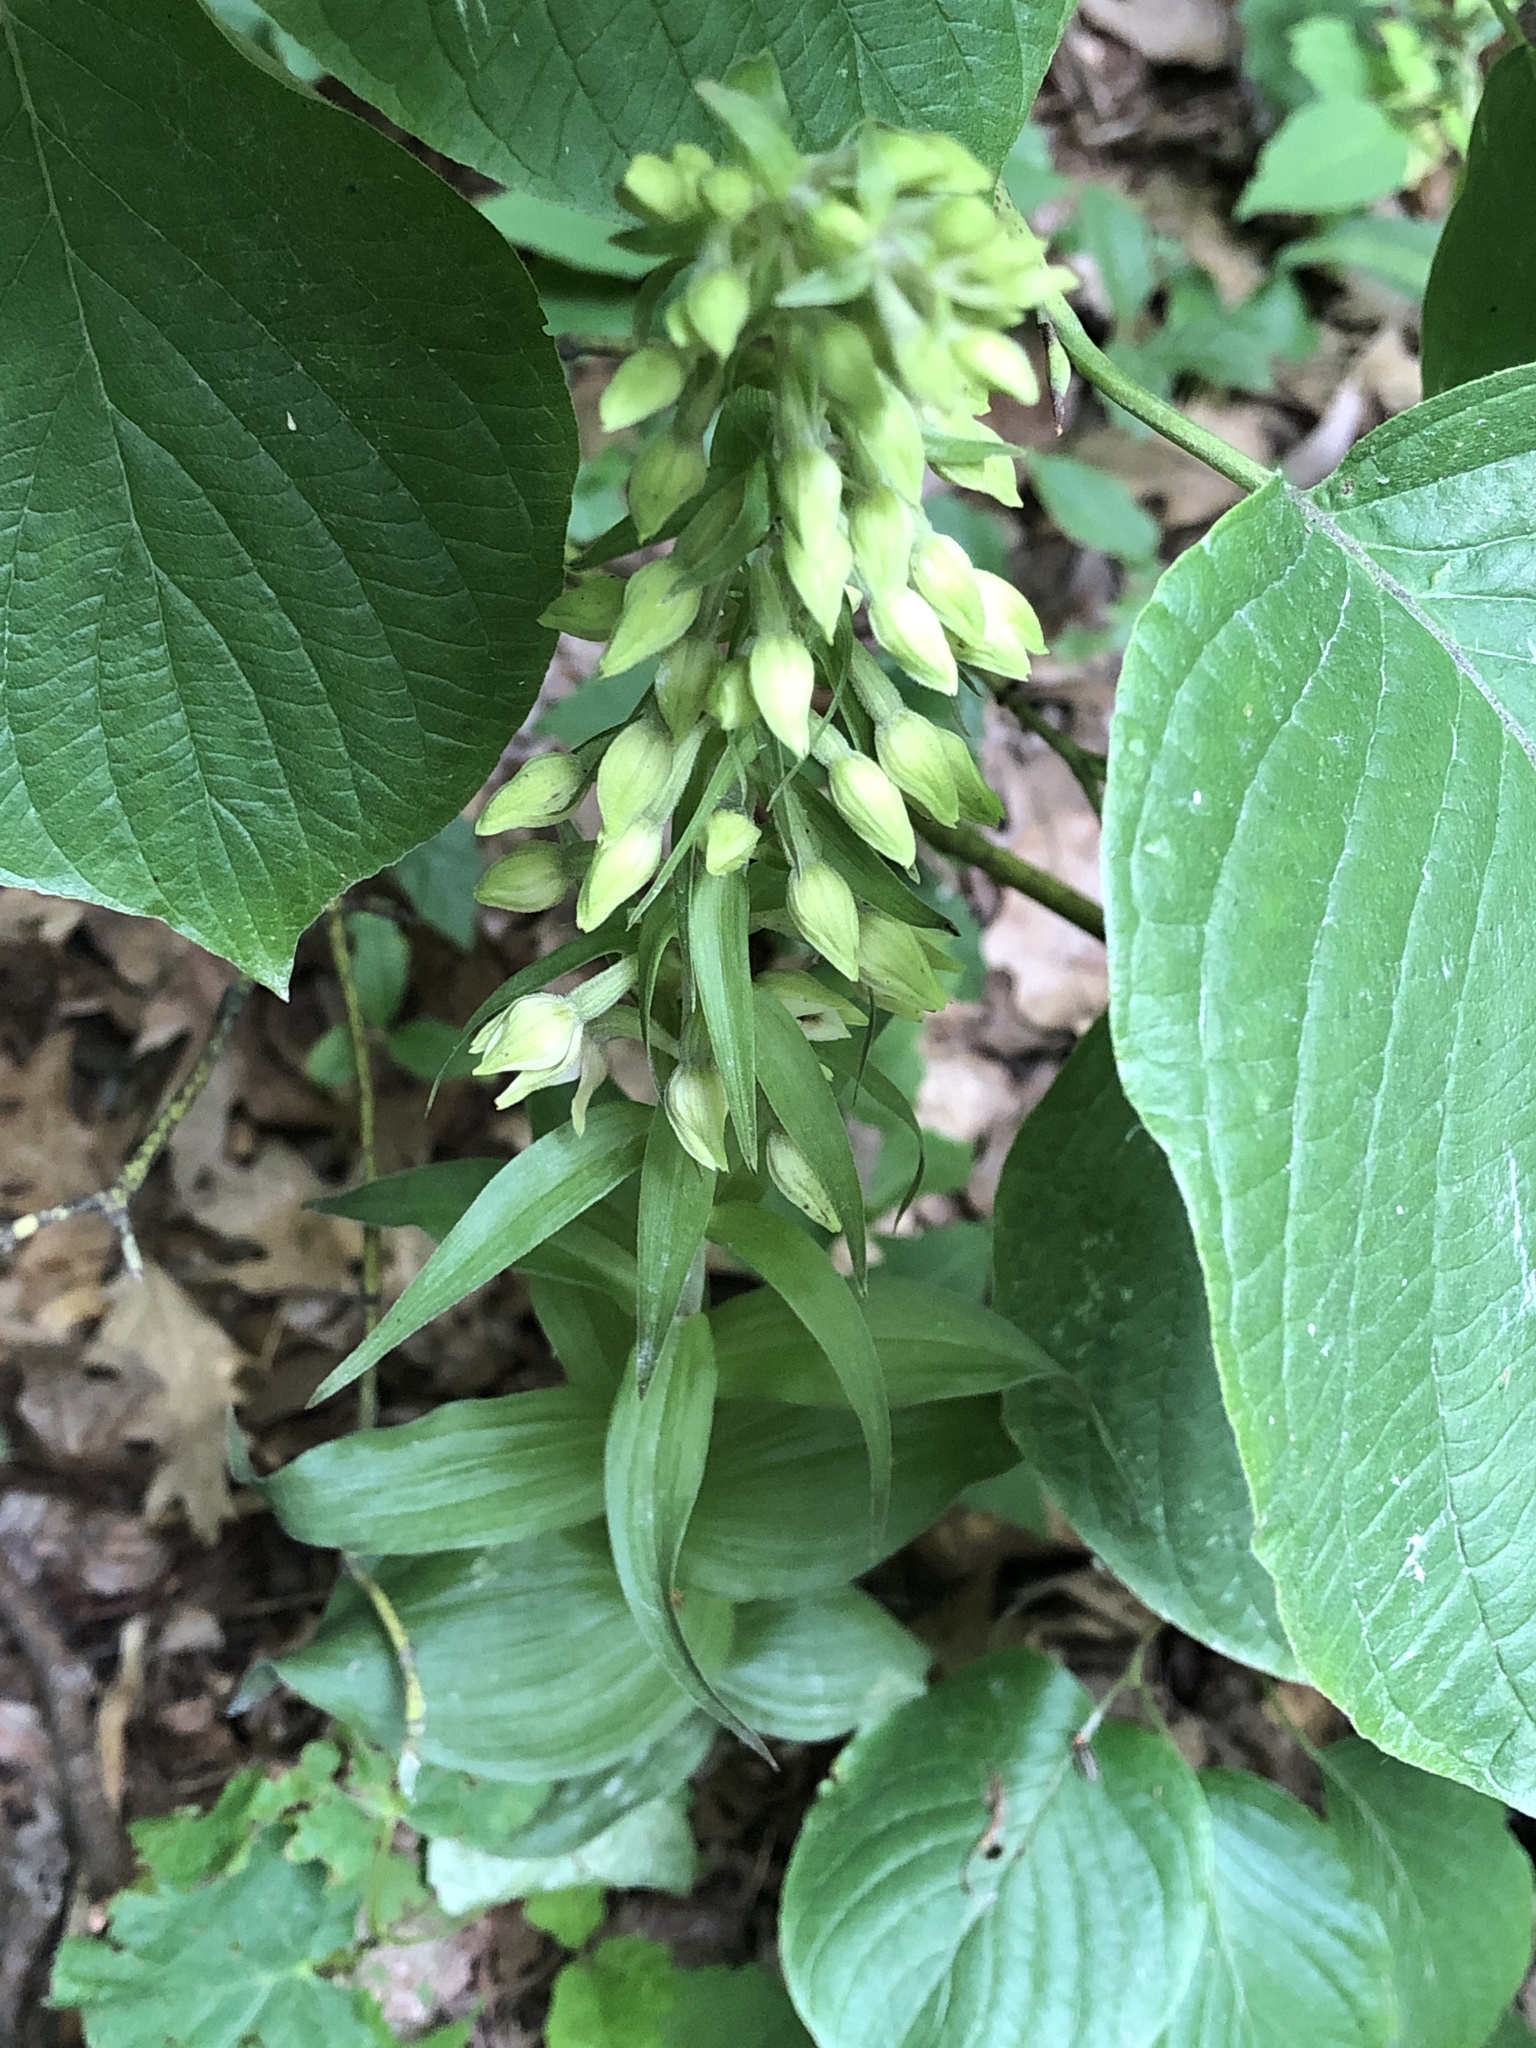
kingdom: Plantae
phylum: Tracheophyta
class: Liliopsida
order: Asparagales
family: Orchidaceae
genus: Epipactis
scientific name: Epipactis helleborine
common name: Broad-leaved helleborine
